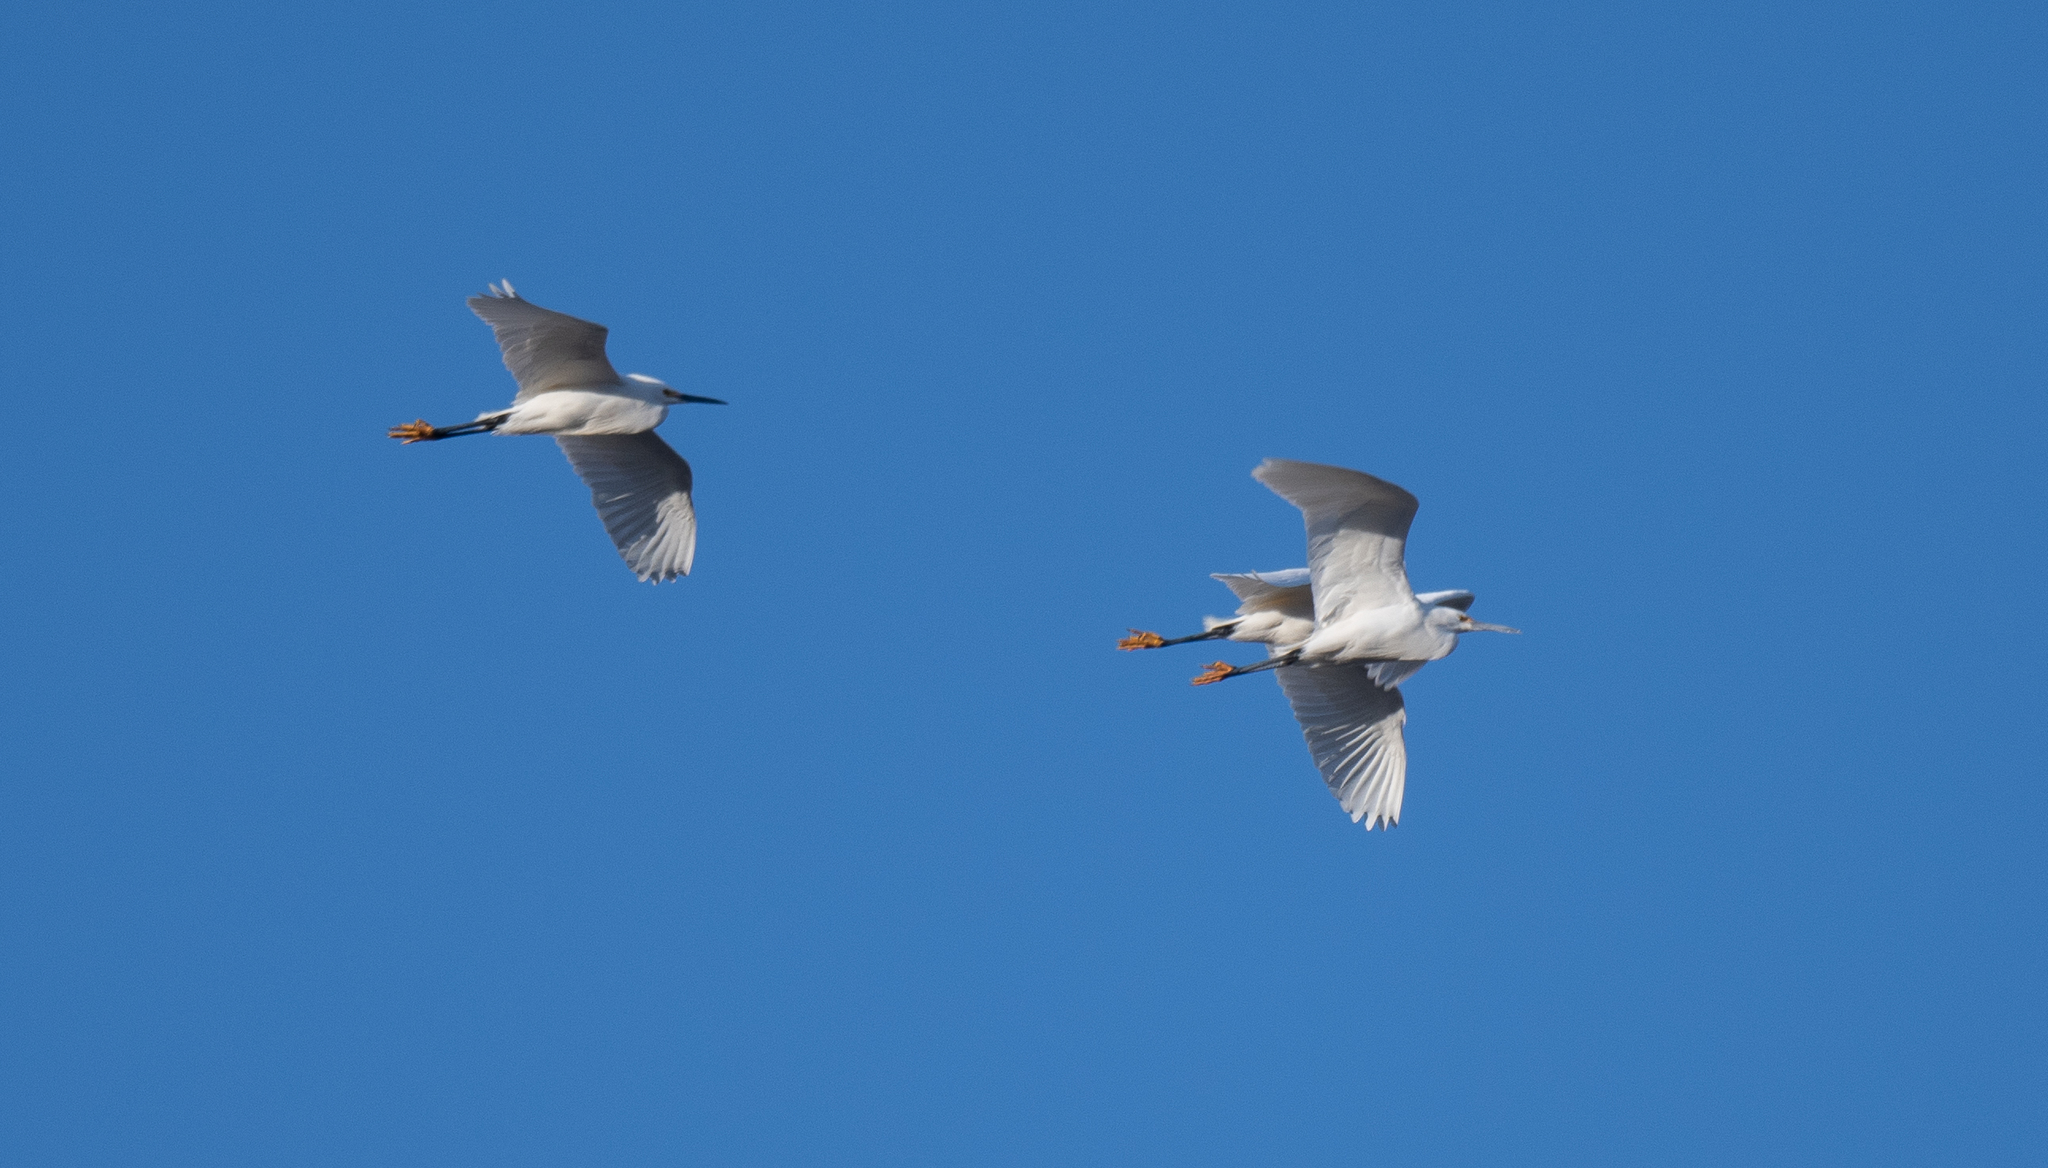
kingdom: Animalia
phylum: Chordata
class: Aves
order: Pelecaniformes
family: Ardeidae
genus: Egretta
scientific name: Egretta thula
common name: Snowy egret
